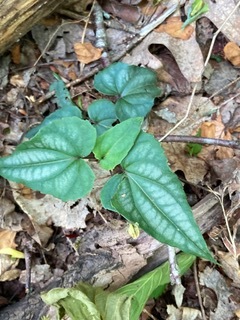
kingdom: Plantae
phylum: Tracheophyta
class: Magnoliopsida
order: Malpighiales
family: Violaceae
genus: Viola
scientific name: Viola hastata
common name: Spear-leaf violet
